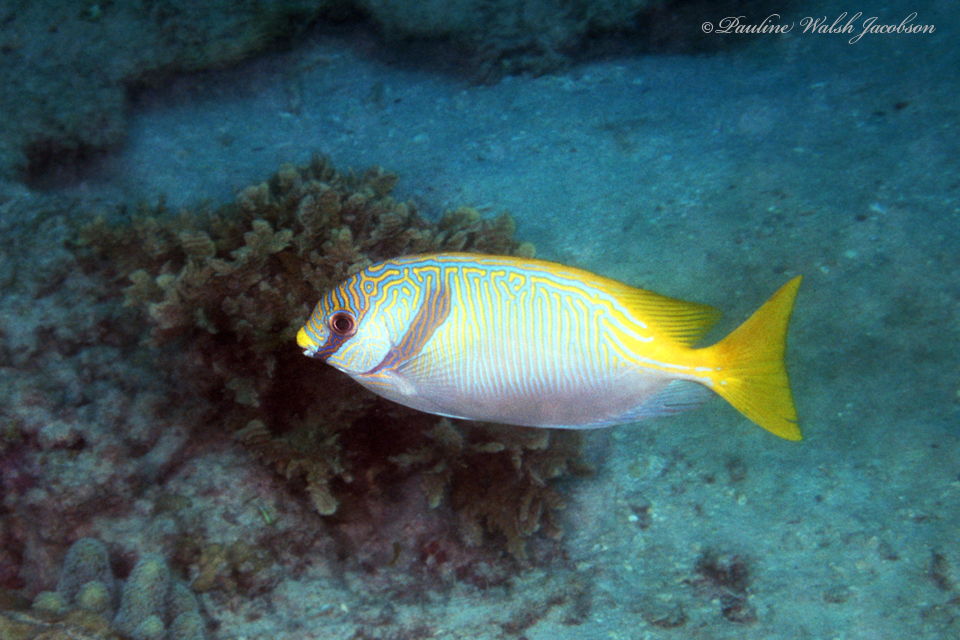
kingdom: Animalia
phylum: Chordata
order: Perciformes
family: Siganidae
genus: Siganus
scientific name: Siganus doliatus
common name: Barred spinefoot
